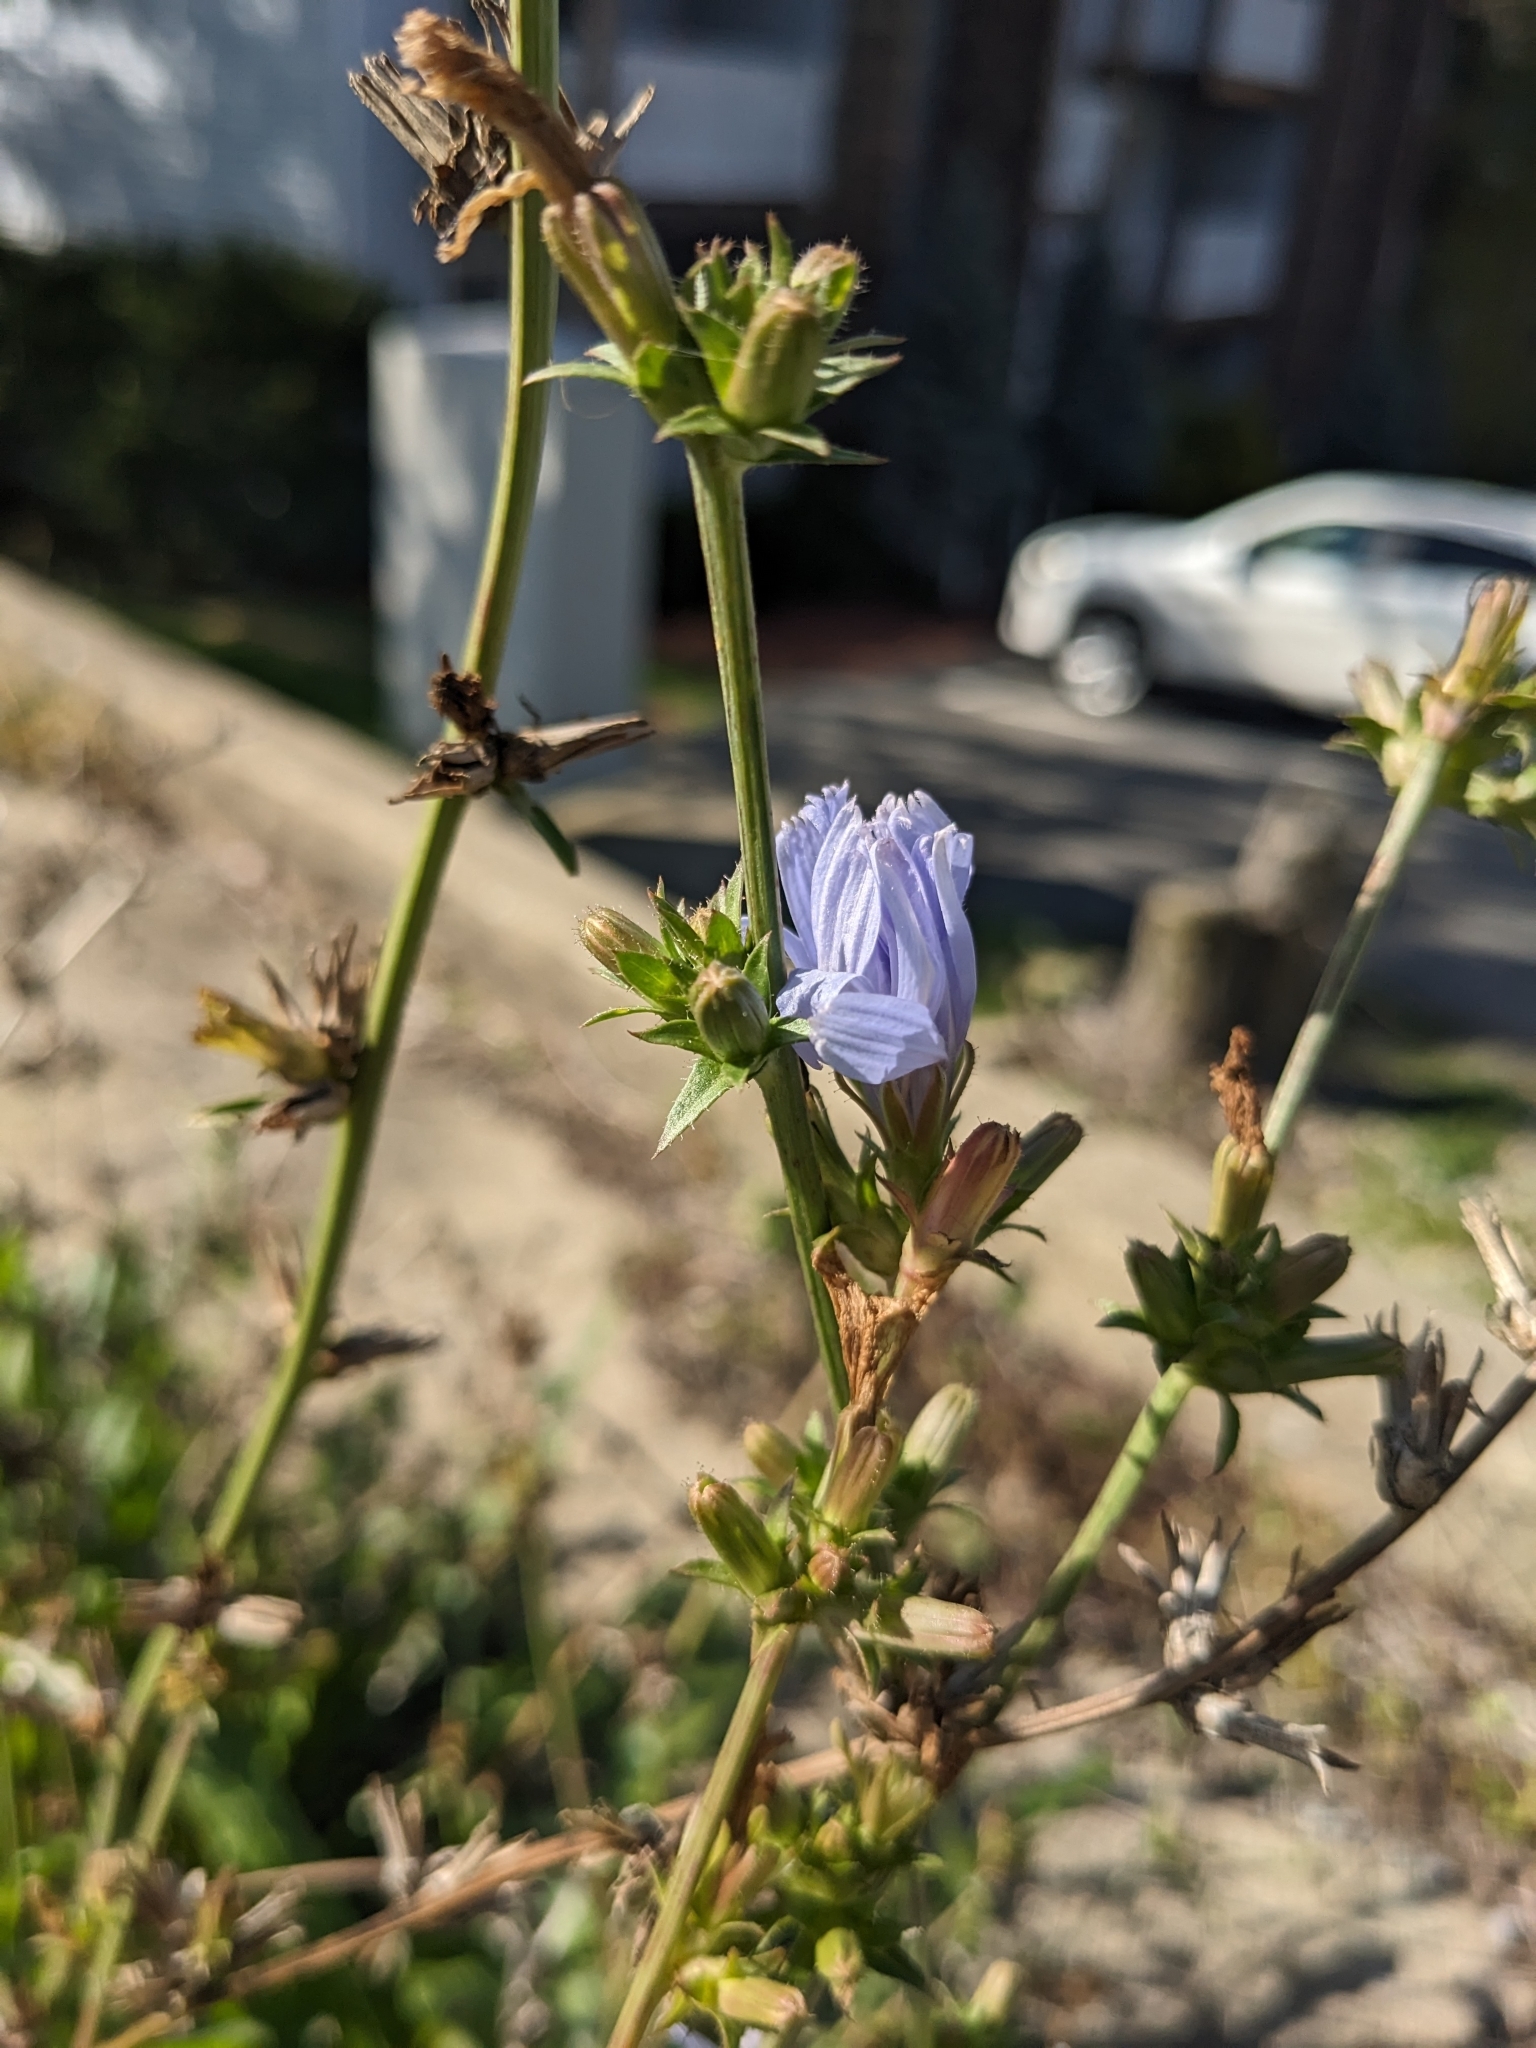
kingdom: Plantae
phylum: Tracheophyta
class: Magnoliopsida
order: Asterales
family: Asteraceae
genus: Cichorium
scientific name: Cichorium intybus
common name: Chicory
